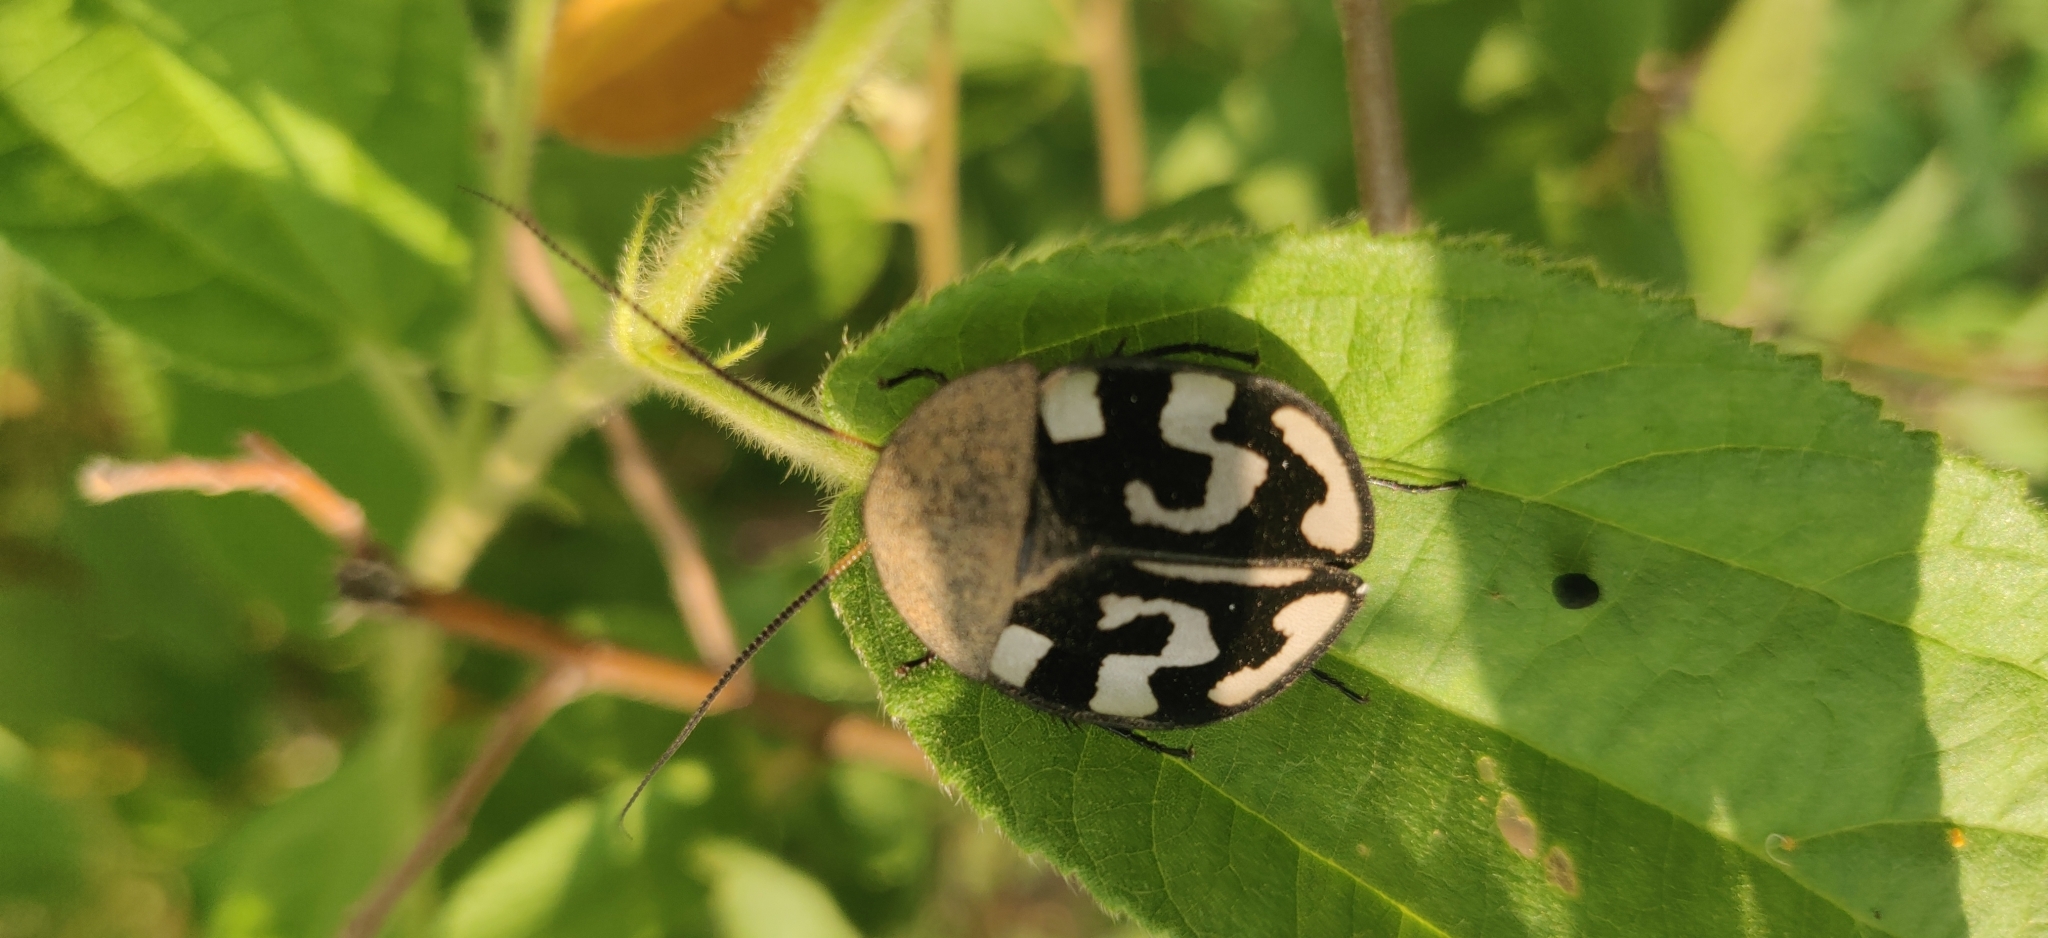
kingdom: Animalia
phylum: Arthropoda
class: Insecta
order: Blattodea
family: Corydiidae
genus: Therea
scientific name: Therea olegrandjeani
